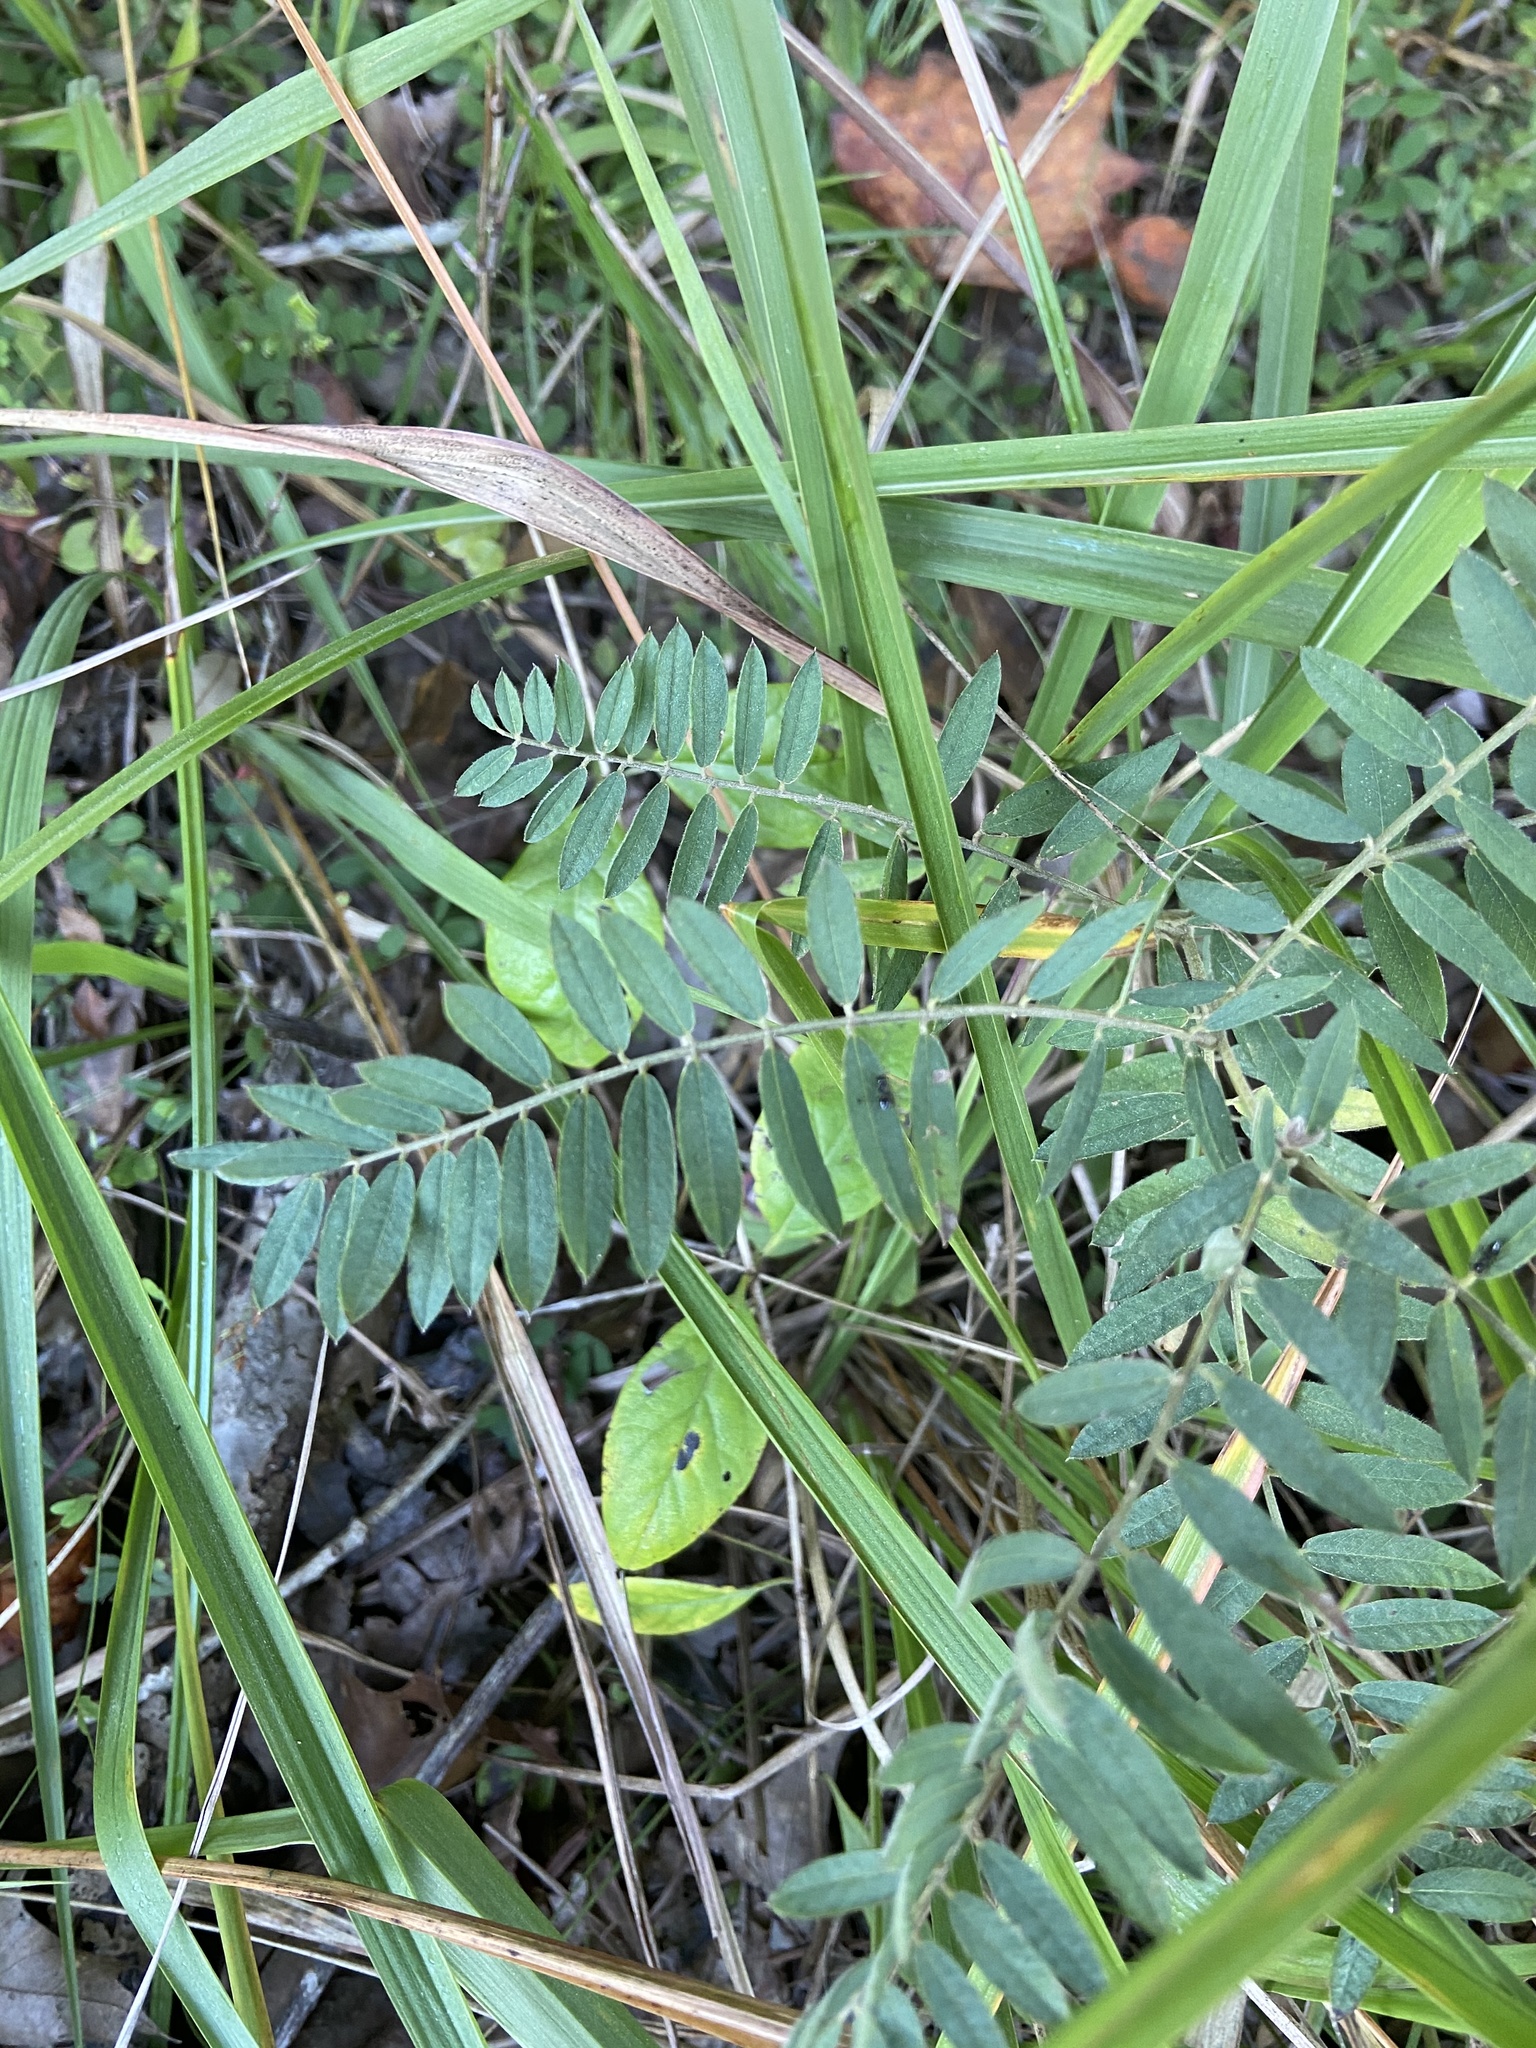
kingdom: Plantae
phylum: Tracheophyta
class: Magnoliopsida
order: Fabales
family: Fabaceae
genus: Tephrosia
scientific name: Tephrosia virginiana
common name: Rabbit-pea
